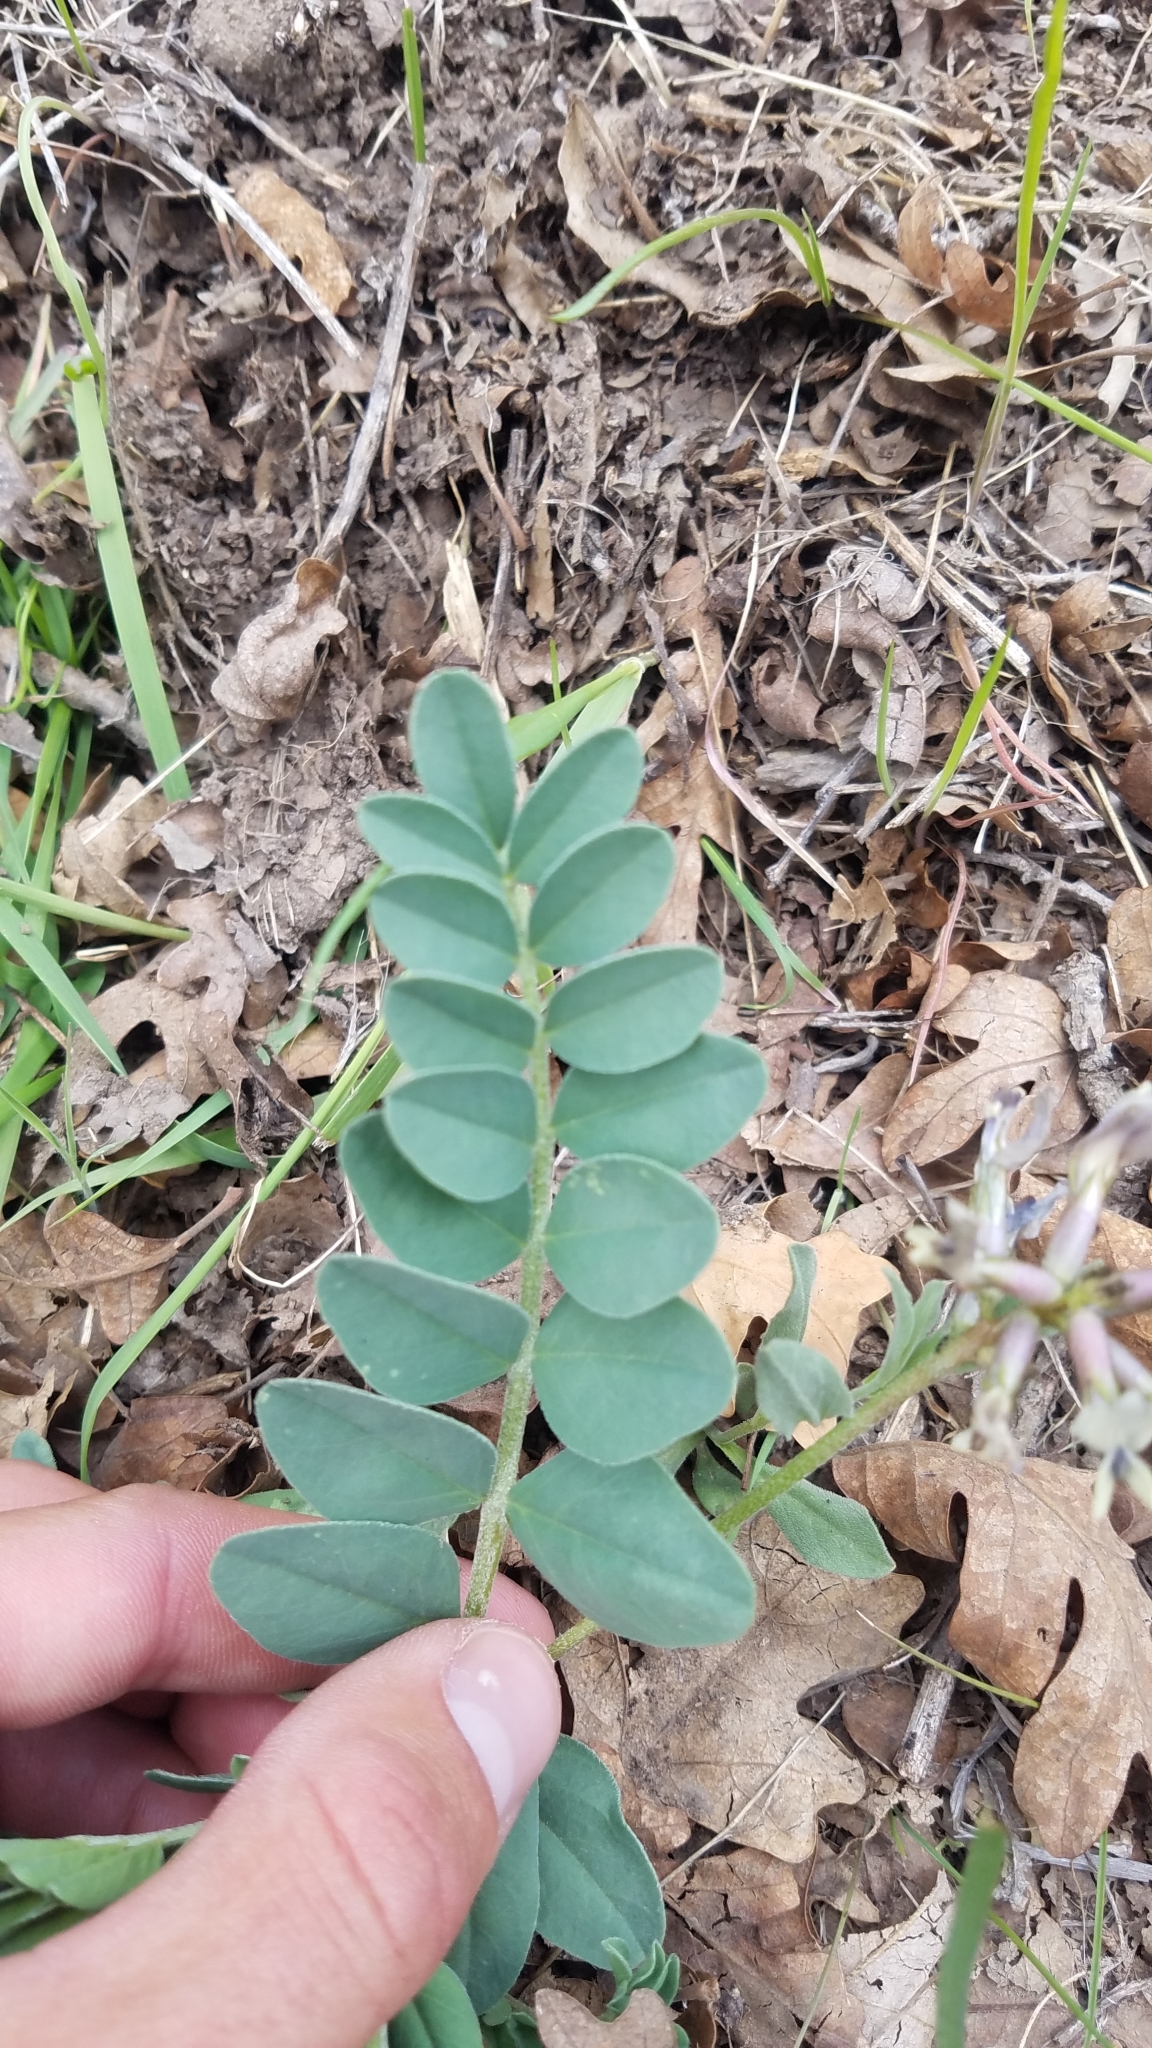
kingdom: Plantae
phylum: Tracheophyta
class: Magnoliopsida
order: Fabales
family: Fabaceae
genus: Astragalus
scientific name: Astragalus cibarius
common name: Browse milk-vetch
